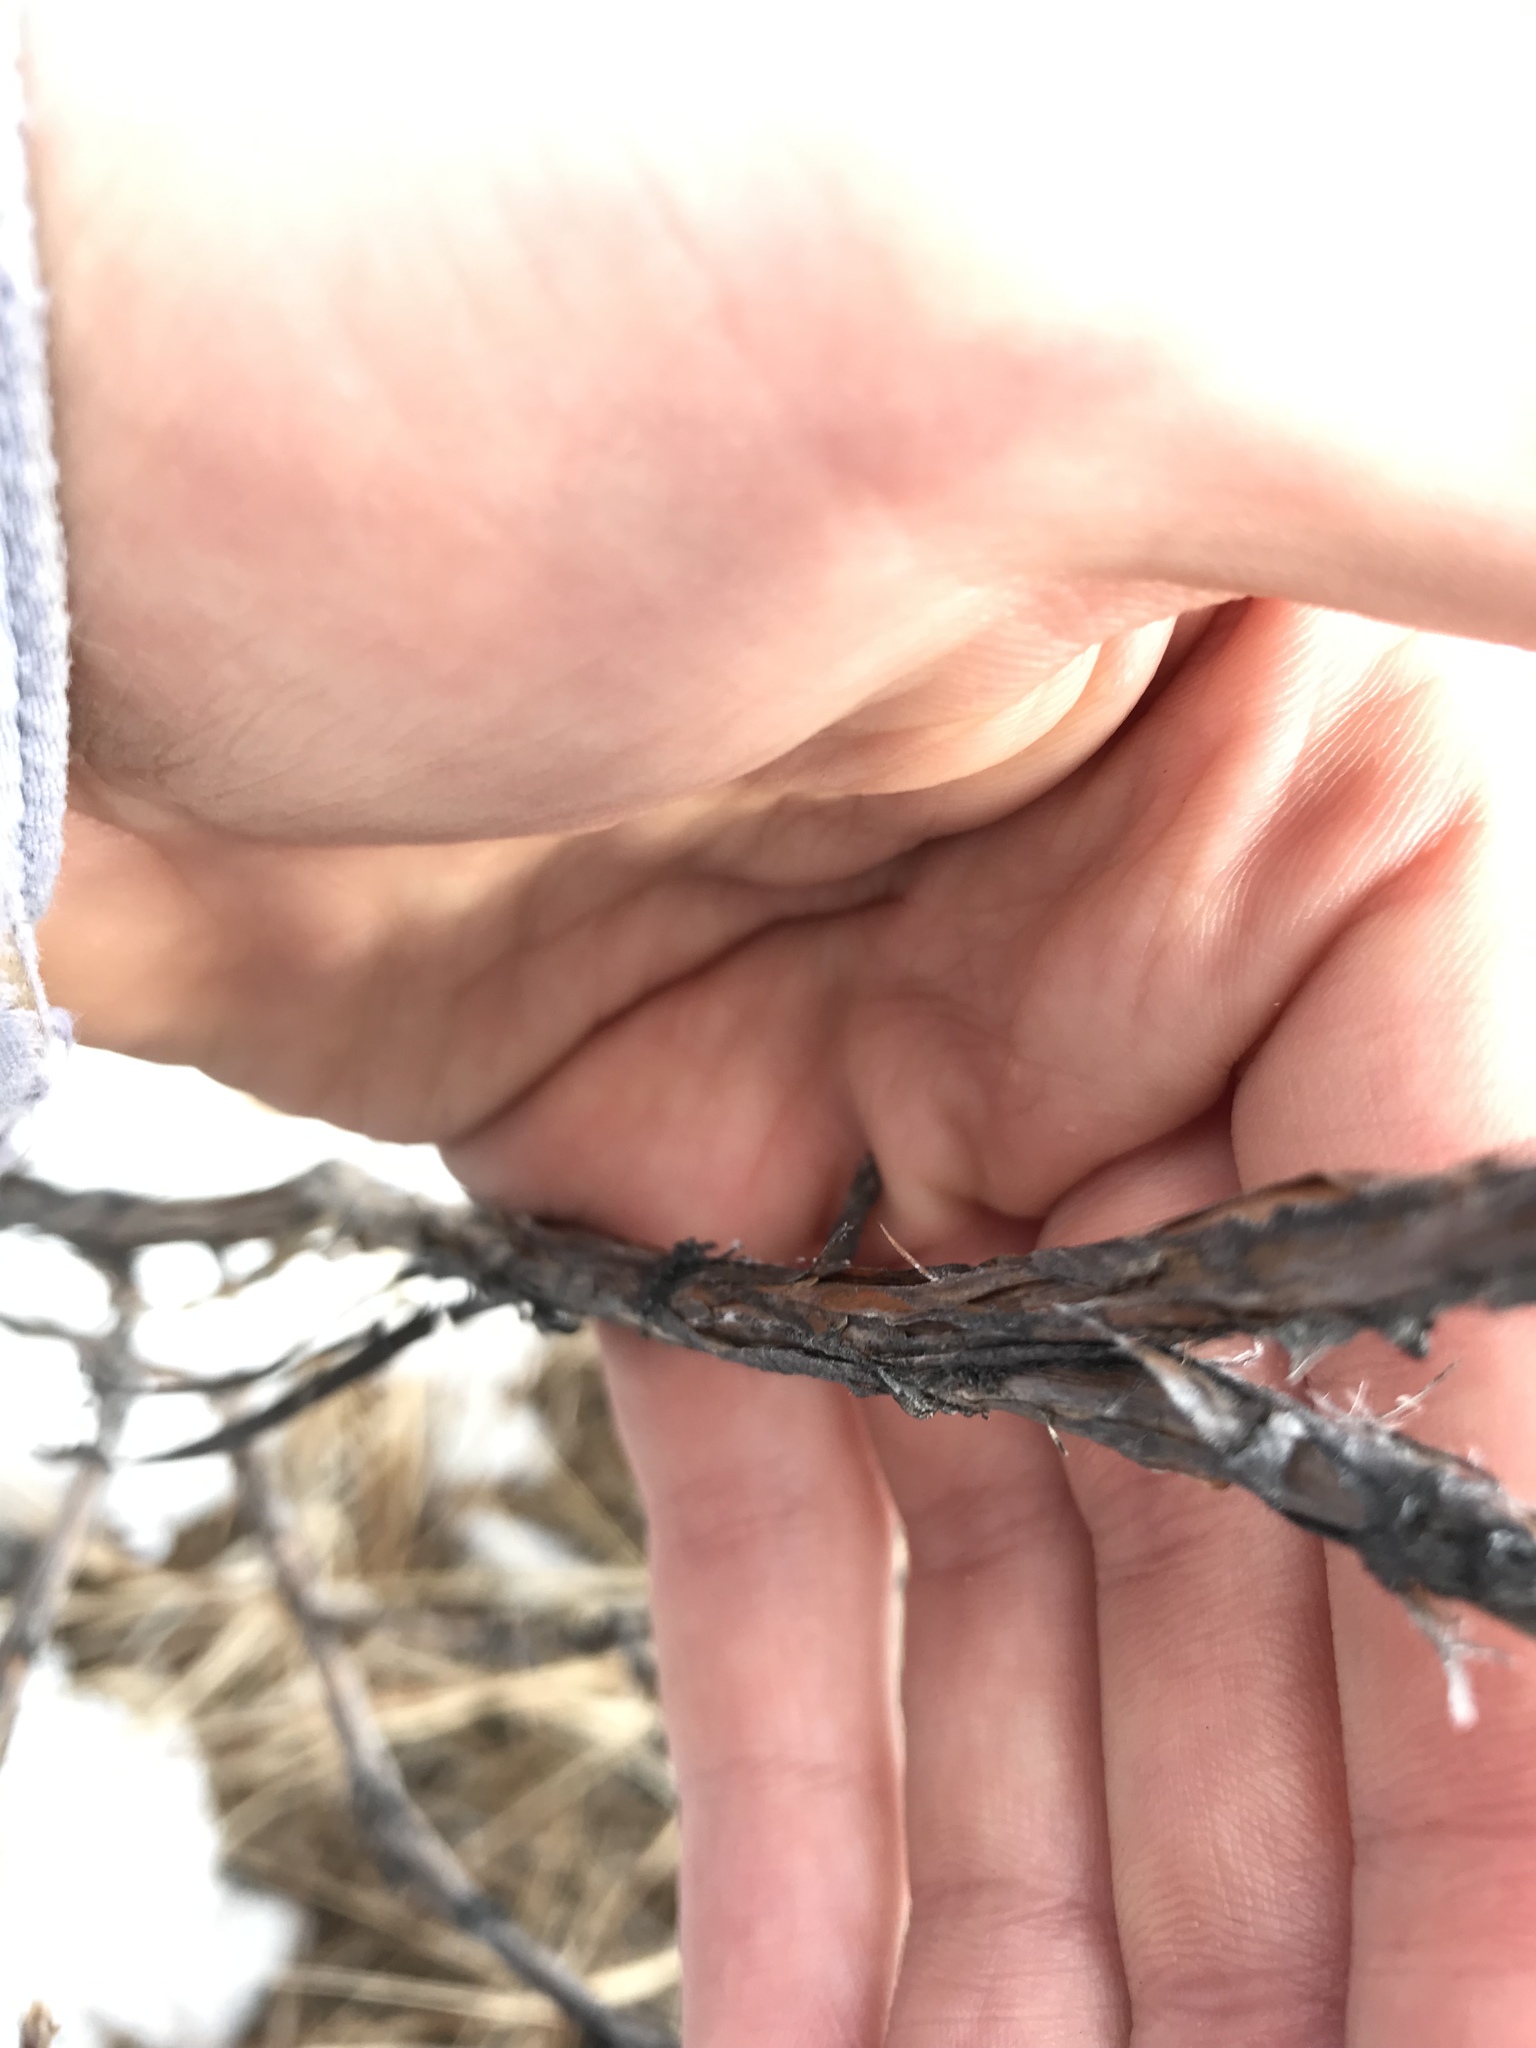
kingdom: Plantae
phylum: Tracheophyta
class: Magnoliopsida
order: Rosales
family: Rosaceae
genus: Dasiphora
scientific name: Dasiphora fruticosa
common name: Shrubby cinquefoil
